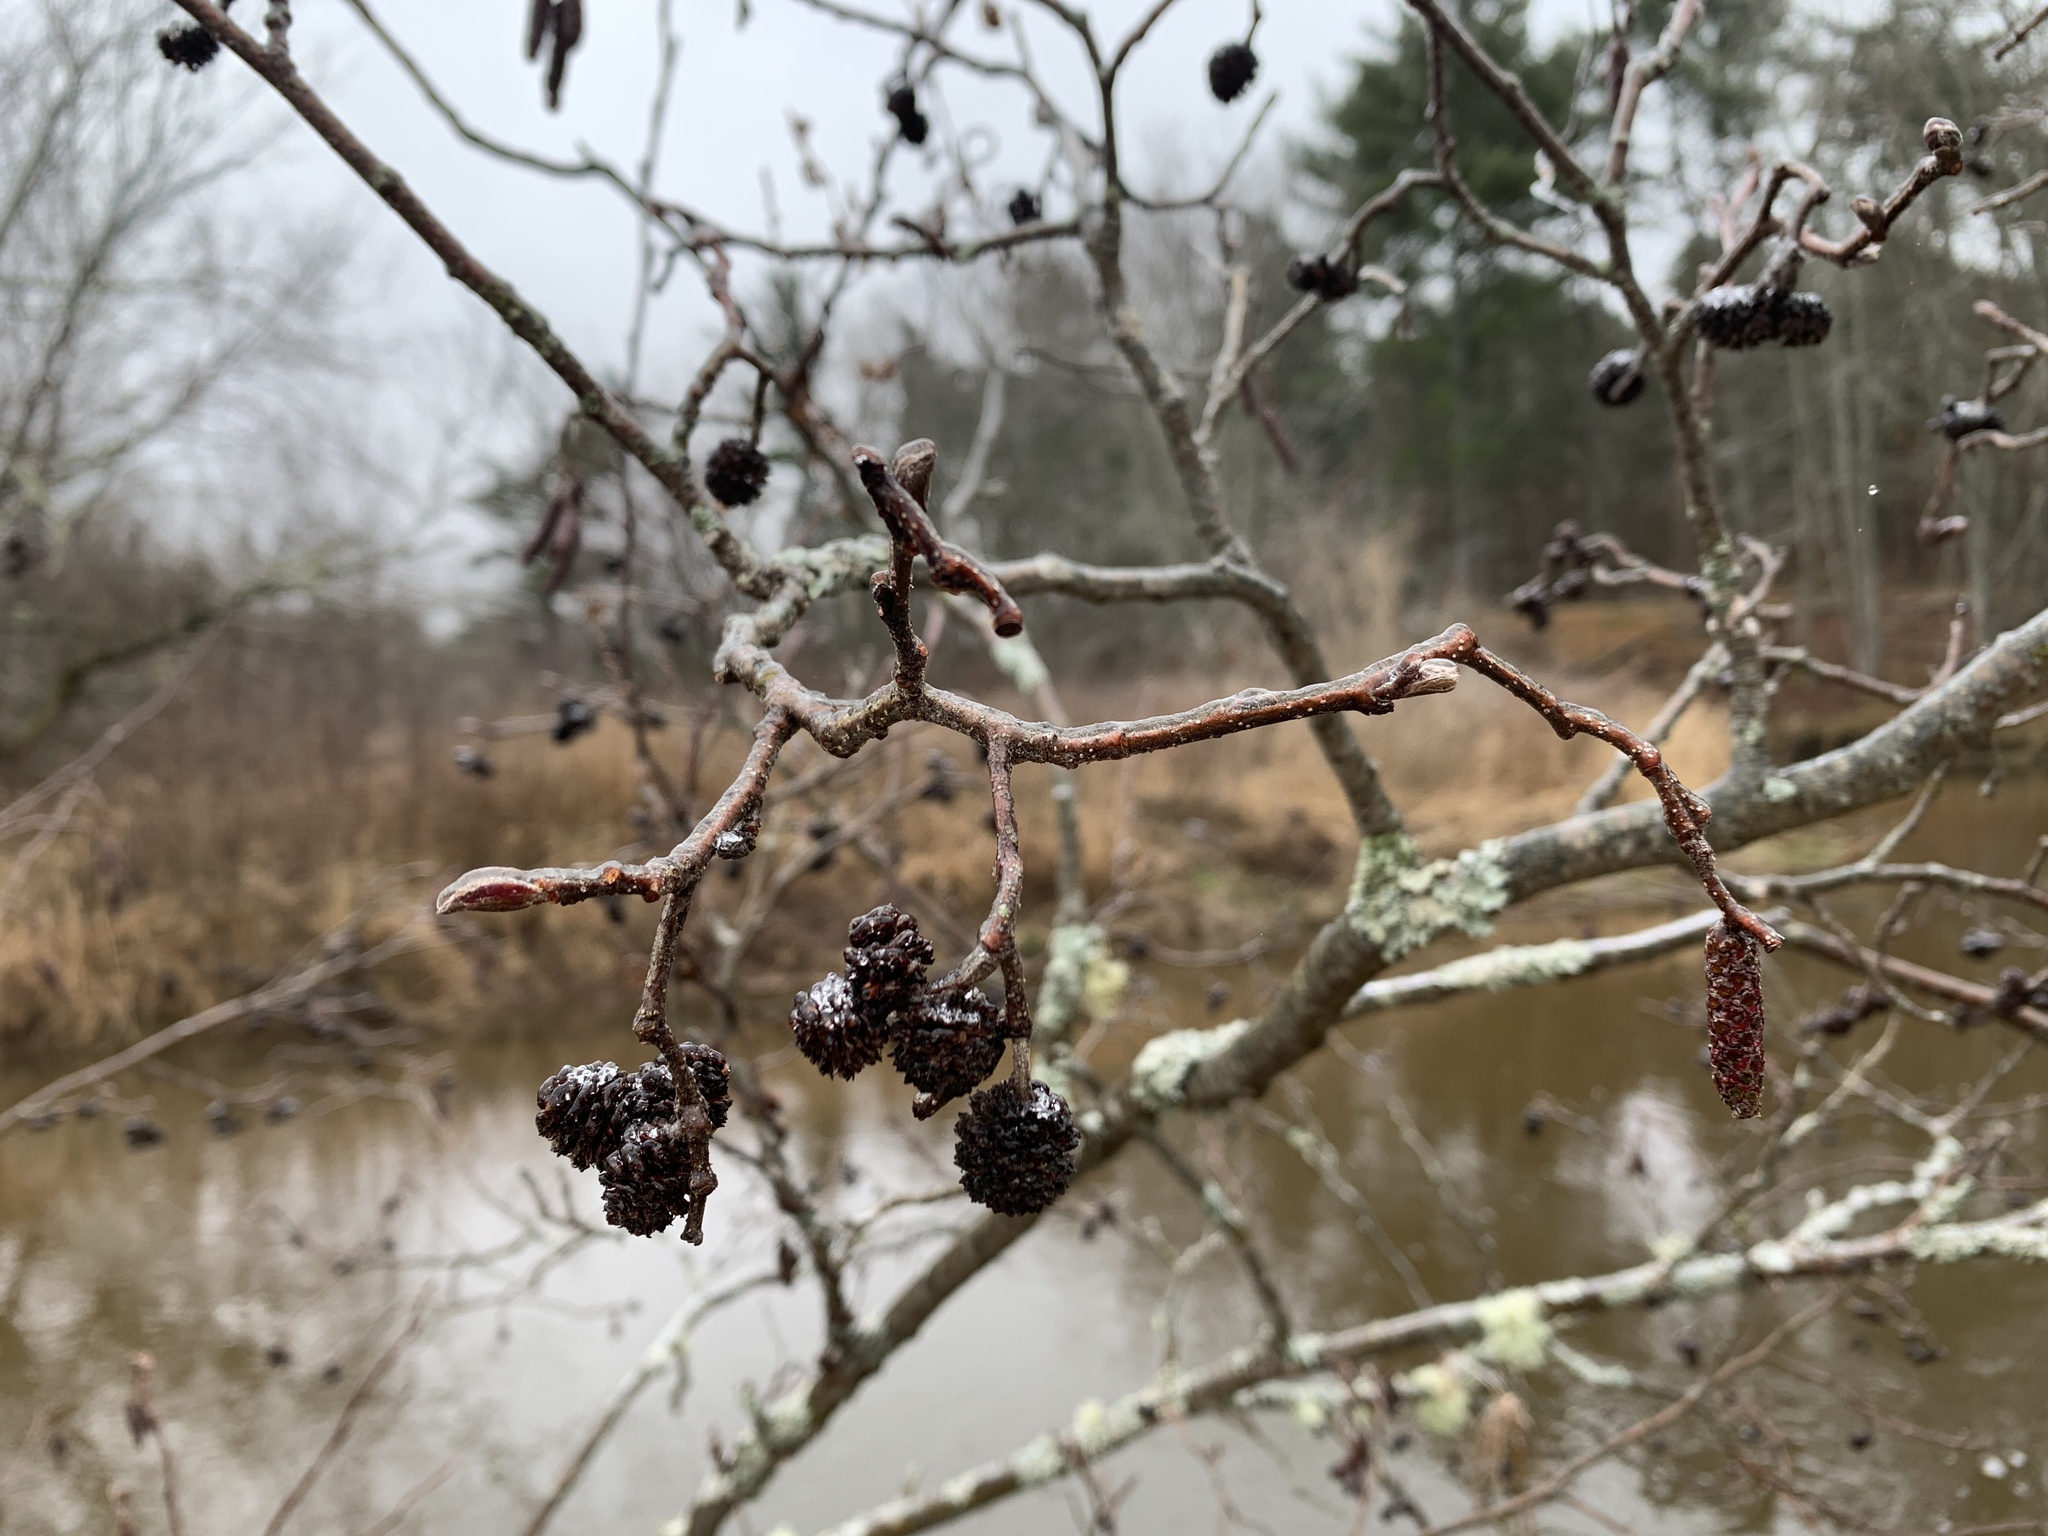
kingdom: Plantae
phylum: Tracheophyta
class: Magnoliopsida
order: Fagales
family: Betulaceae
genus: Alnus
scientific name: Alnus incana
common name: Grey alder
